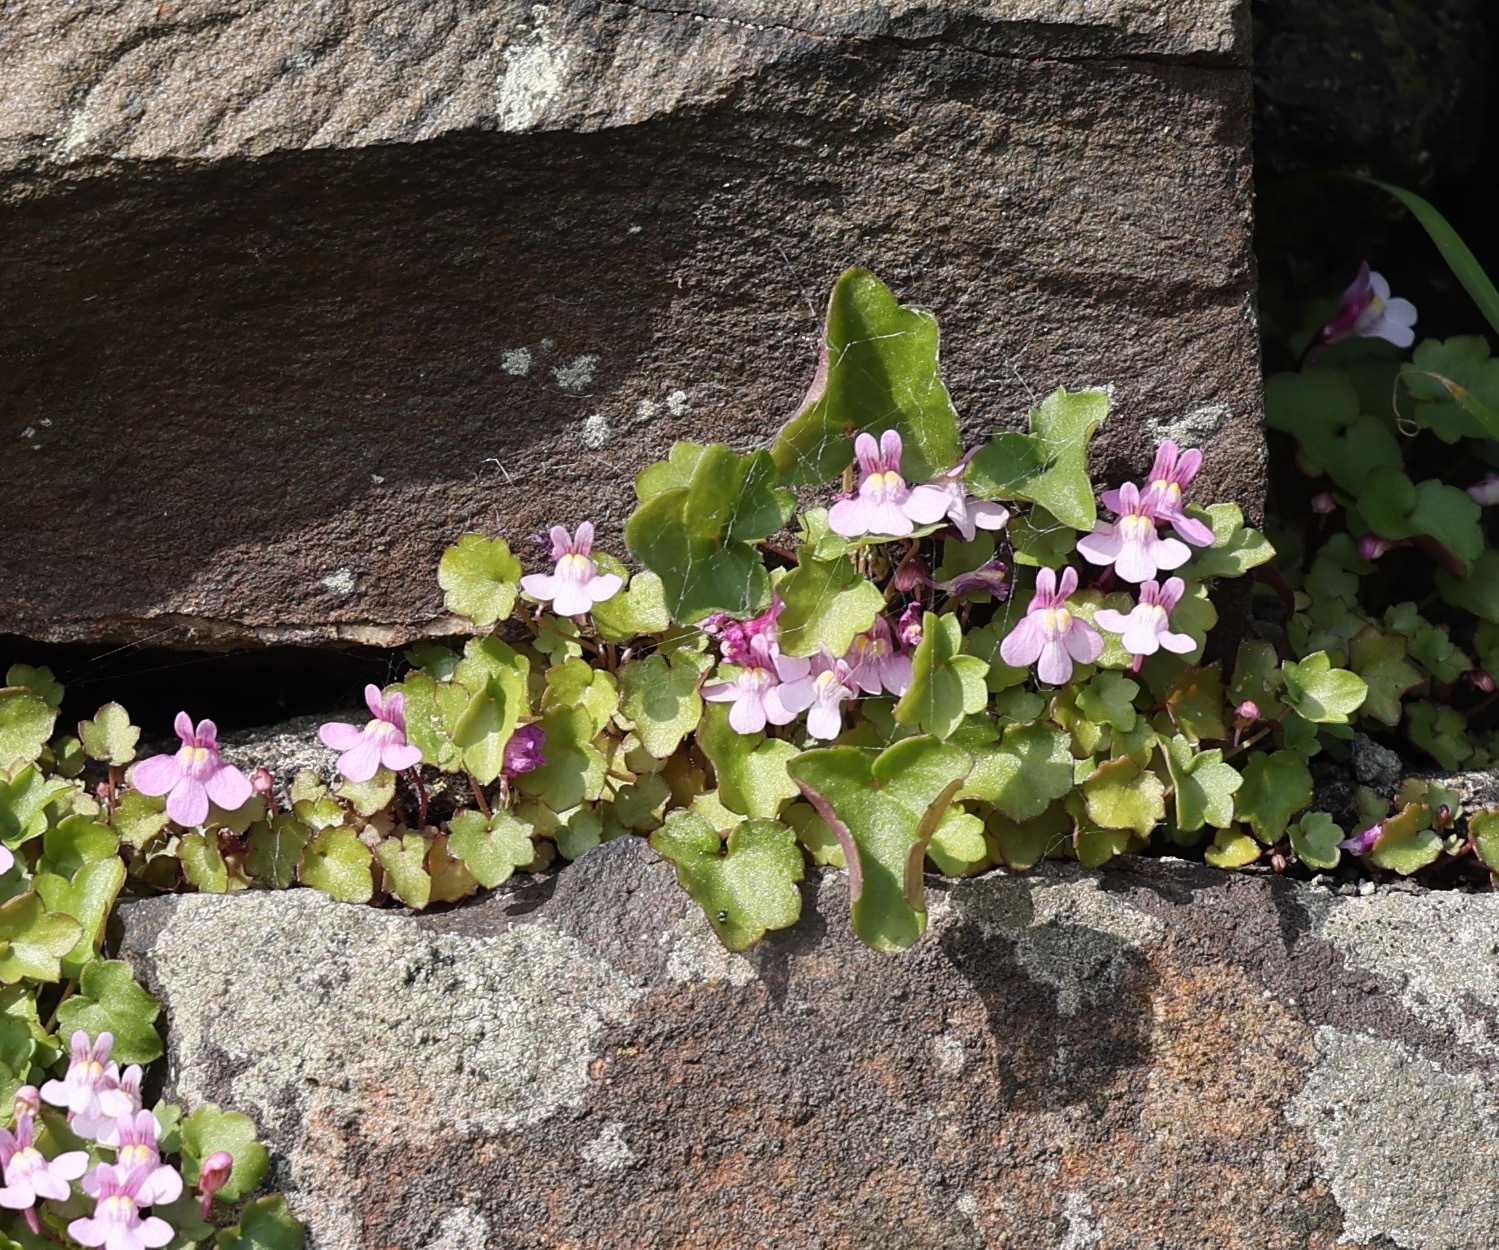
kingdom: Plantae
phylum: Tracheophyta
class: Magnoliopsida
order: Lamiales
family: Plantaginaceae
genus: Cymbalaria
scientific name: Cymbalaria muralis
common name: Ivy-leaved toadflax
